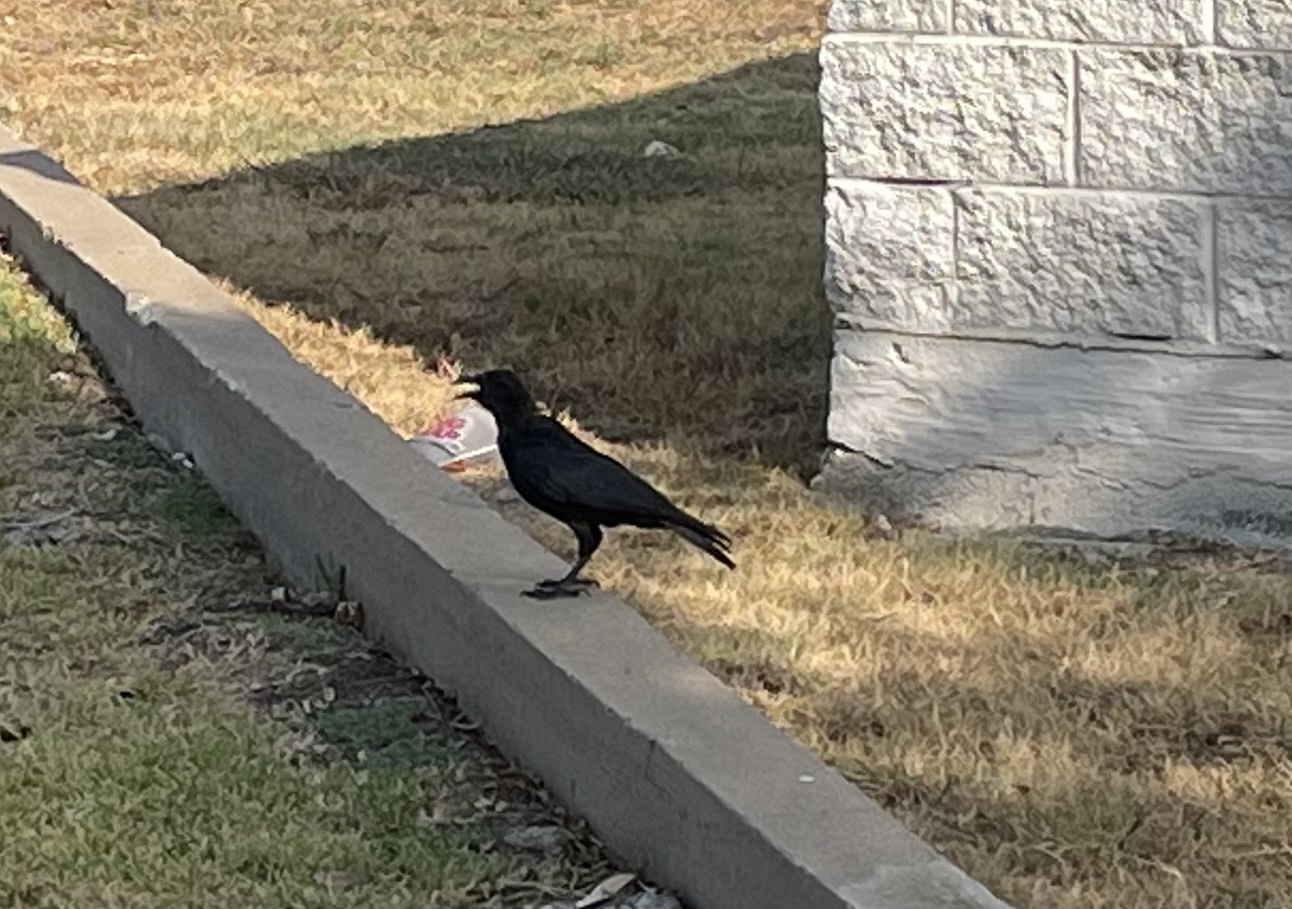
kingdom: Animalia
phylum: Chordata
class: Aves
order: Passeriformes
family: Corvidae
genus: Corvus
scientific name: Corvus brachyrhynchos
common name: American crow
